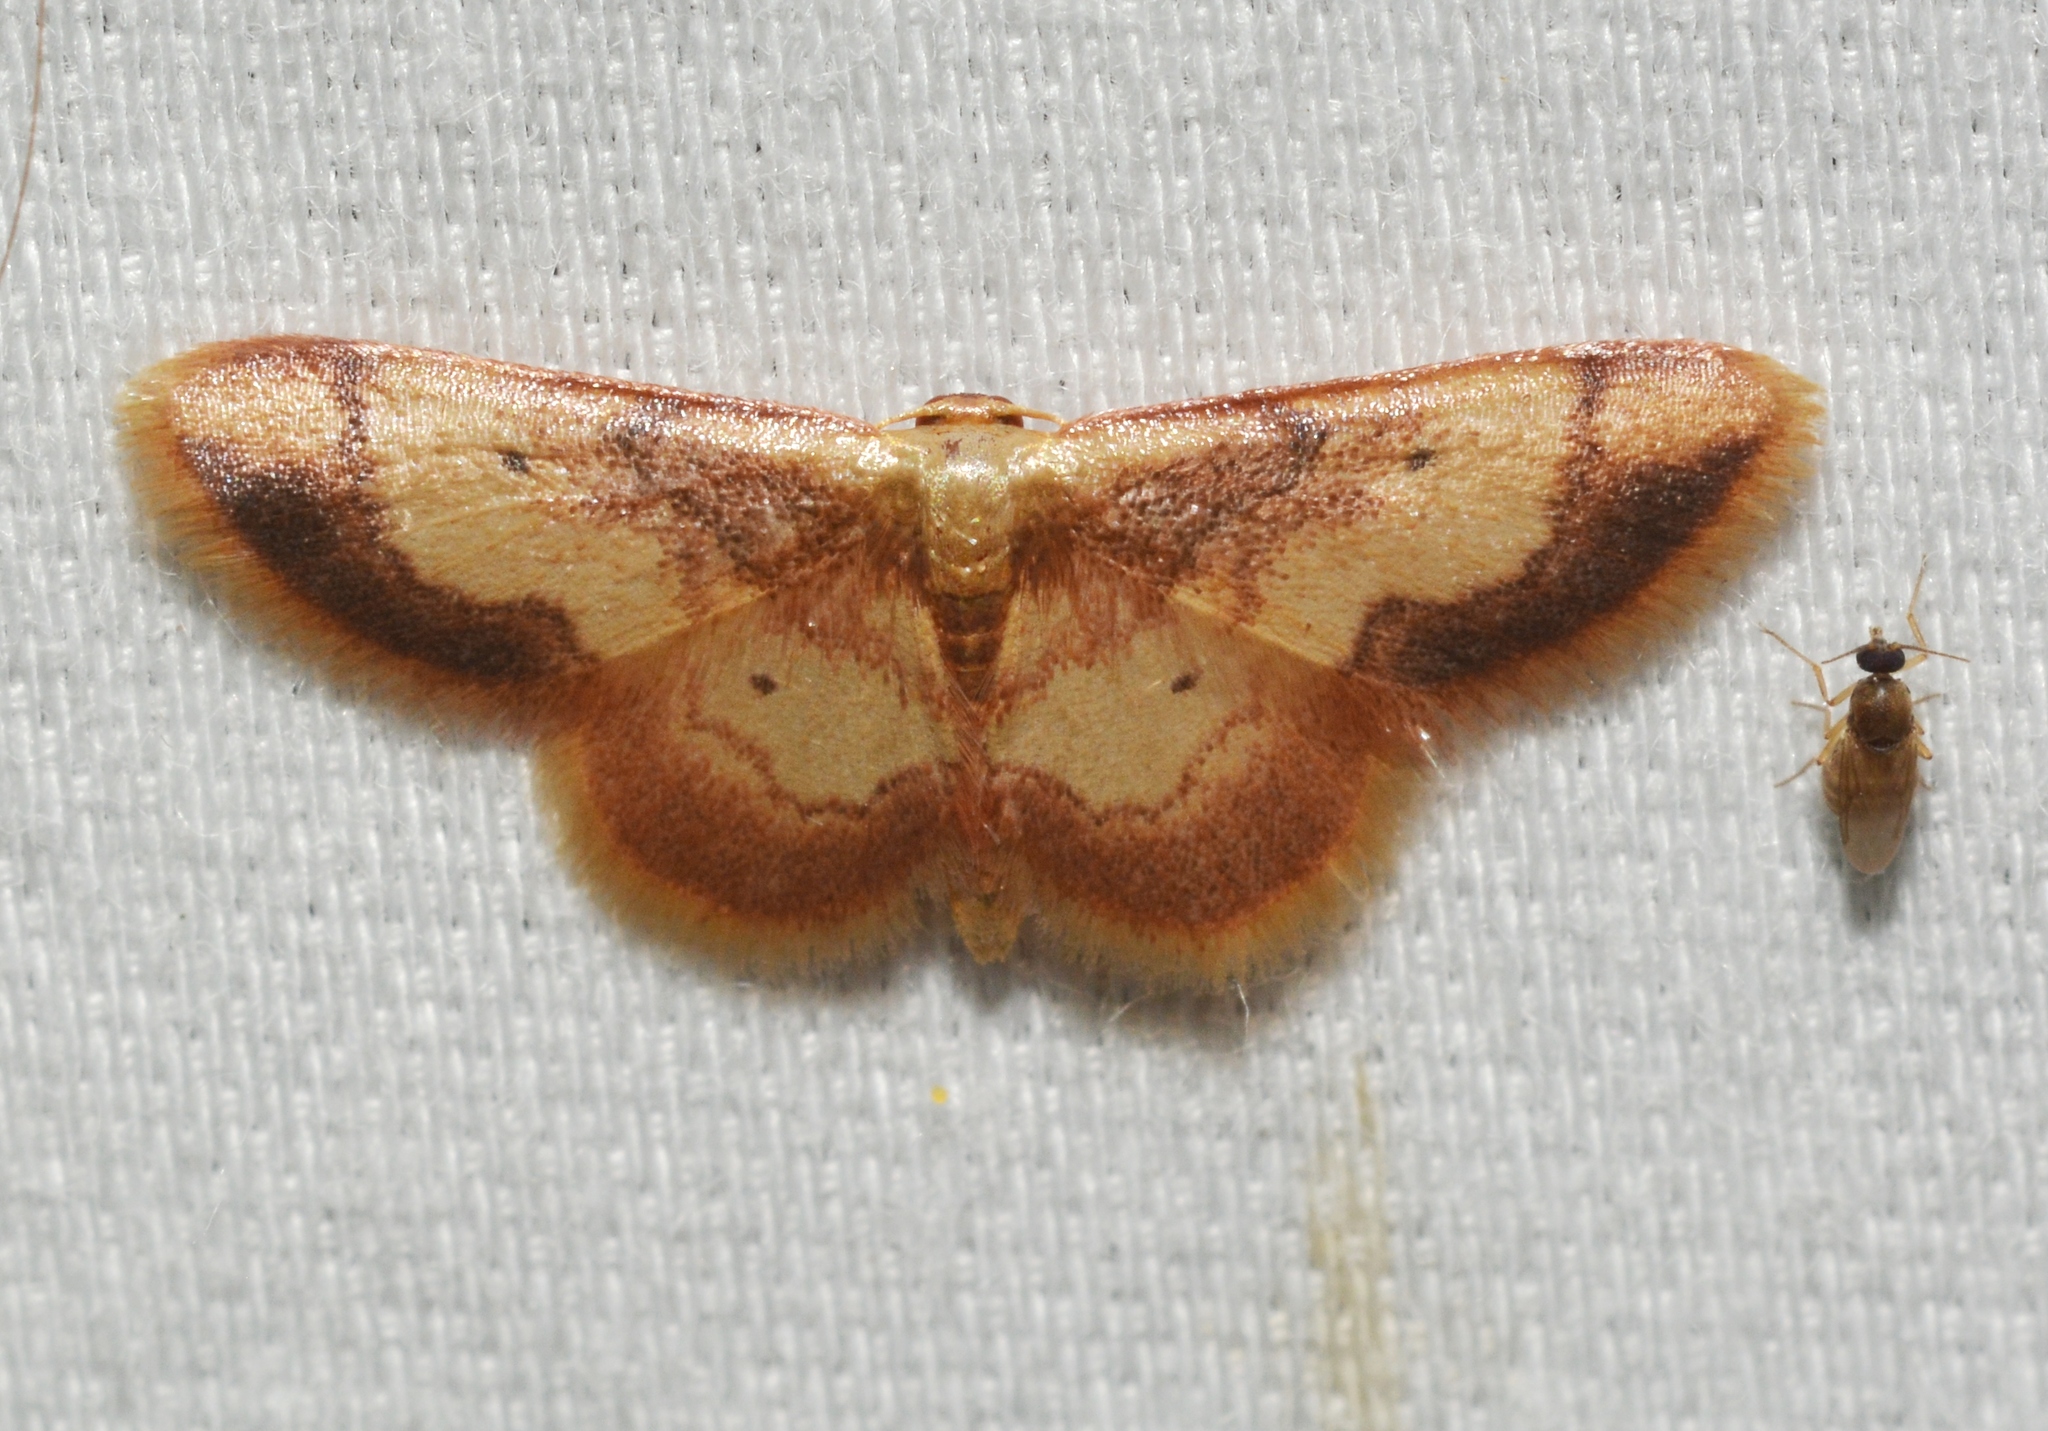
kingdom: Animalia
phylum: Arthropoda
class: Insecta
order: Lepidoptera
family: Geometridae
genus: Idaea
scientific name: Idaea demissaria
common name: Red-bordered wave
